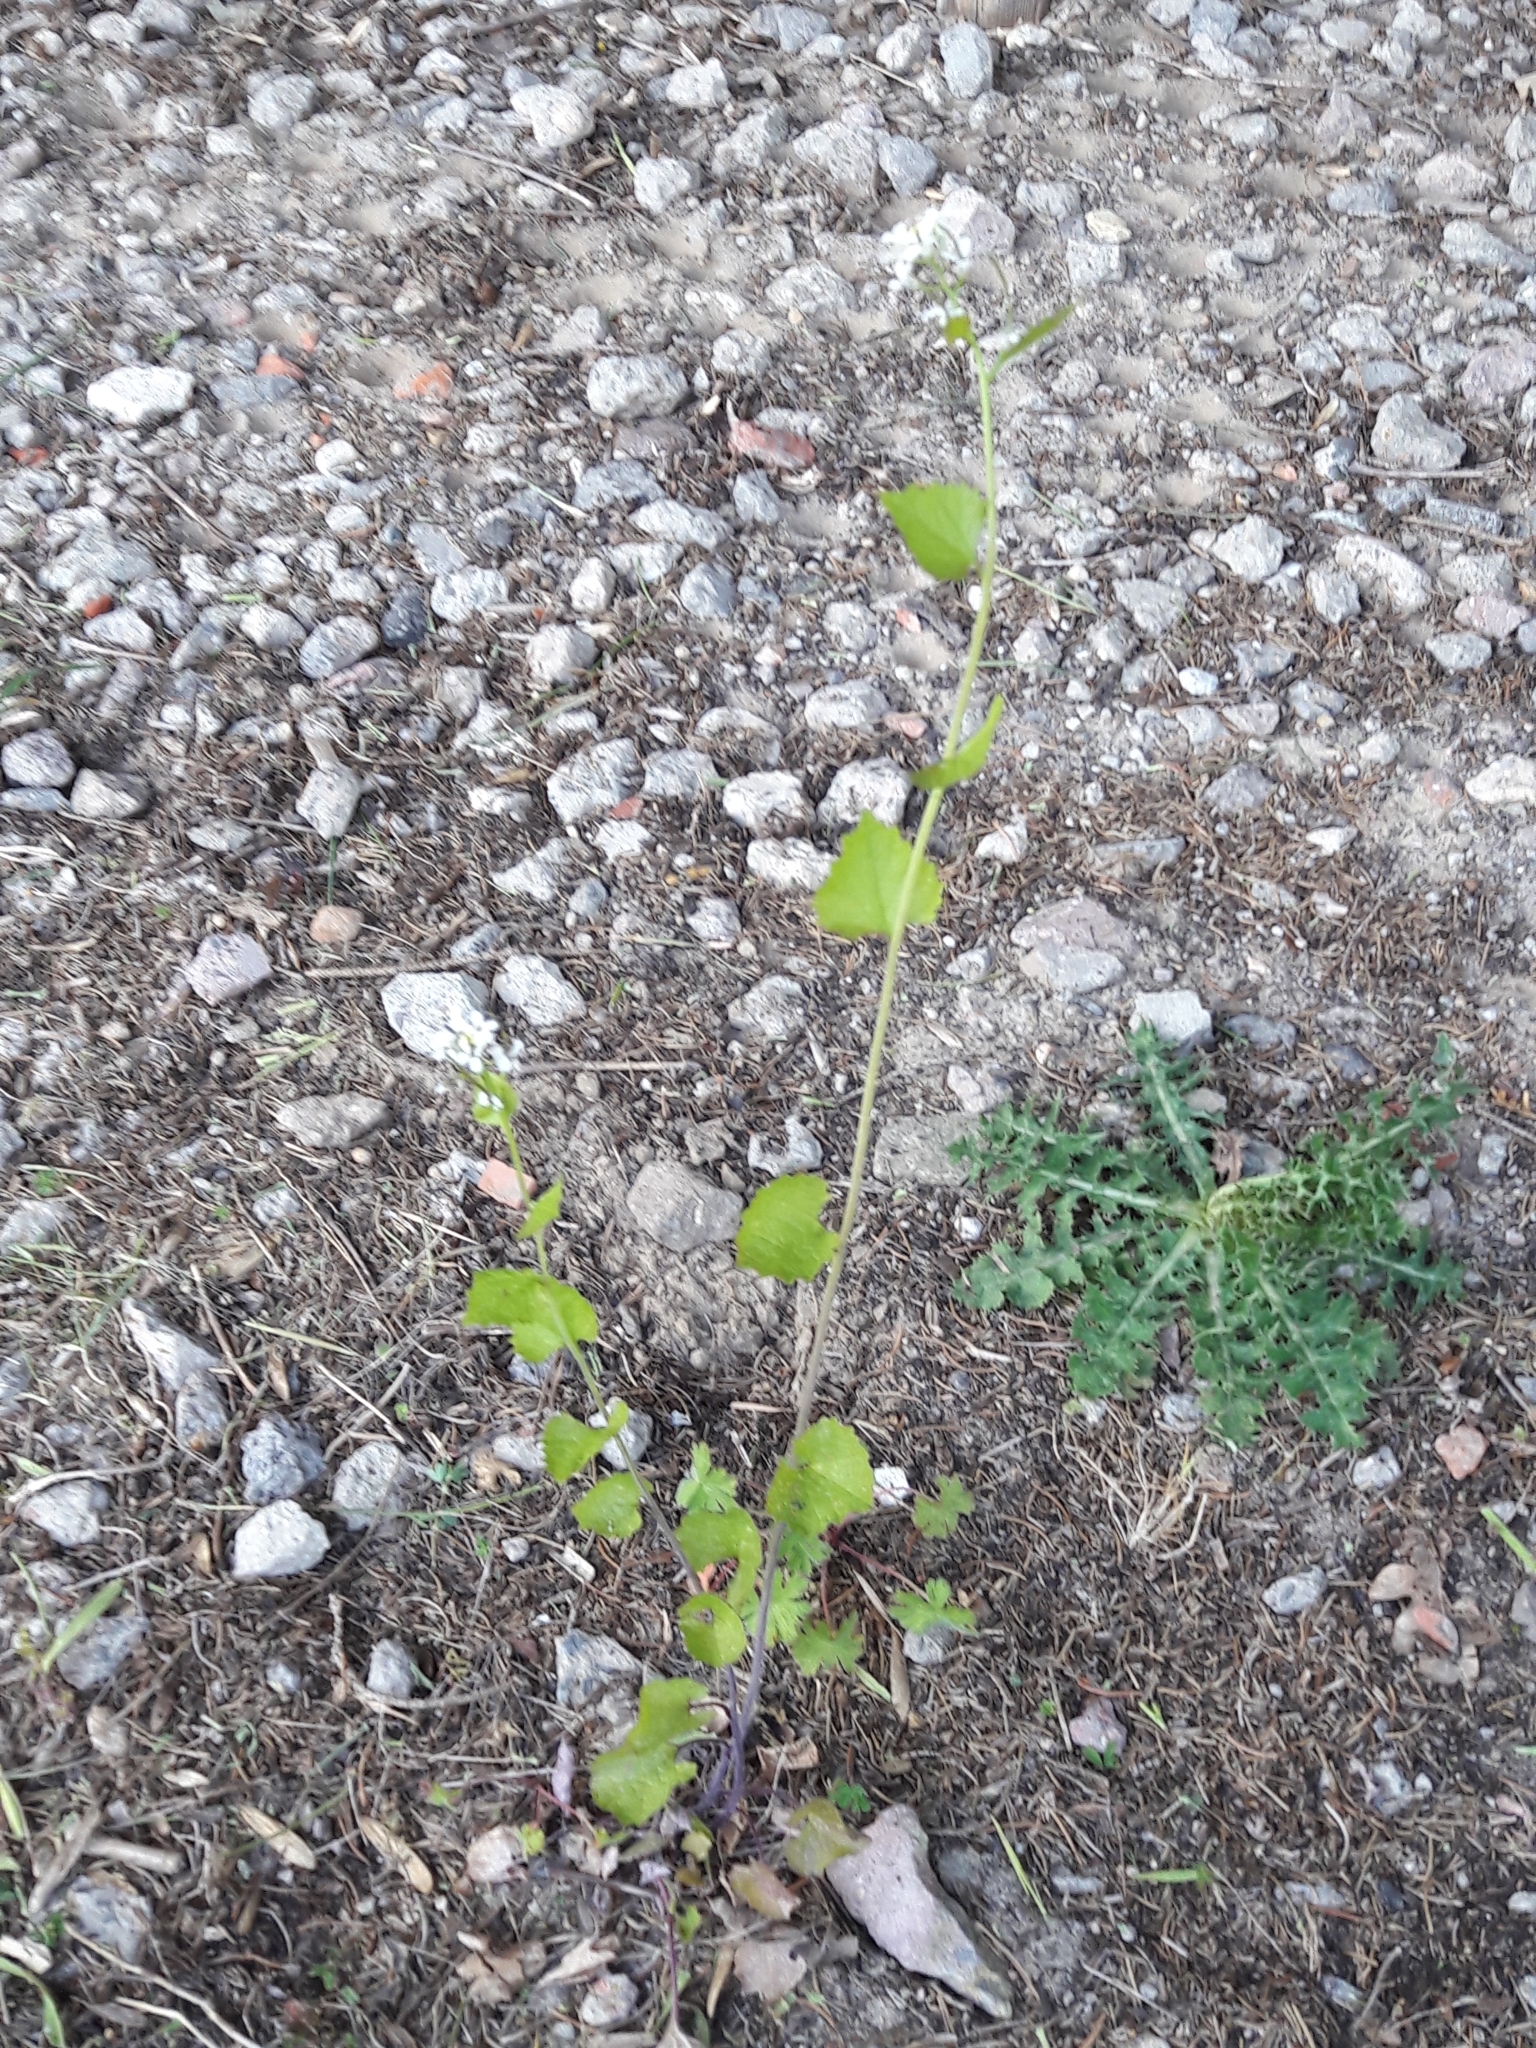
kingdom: Plantae
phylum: Tracheophyta
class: Magnoliopsida
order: Brassicales
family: Brassicaceae
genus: Alliaria
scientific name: Alliaria petiolata
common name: Garlic mustard
